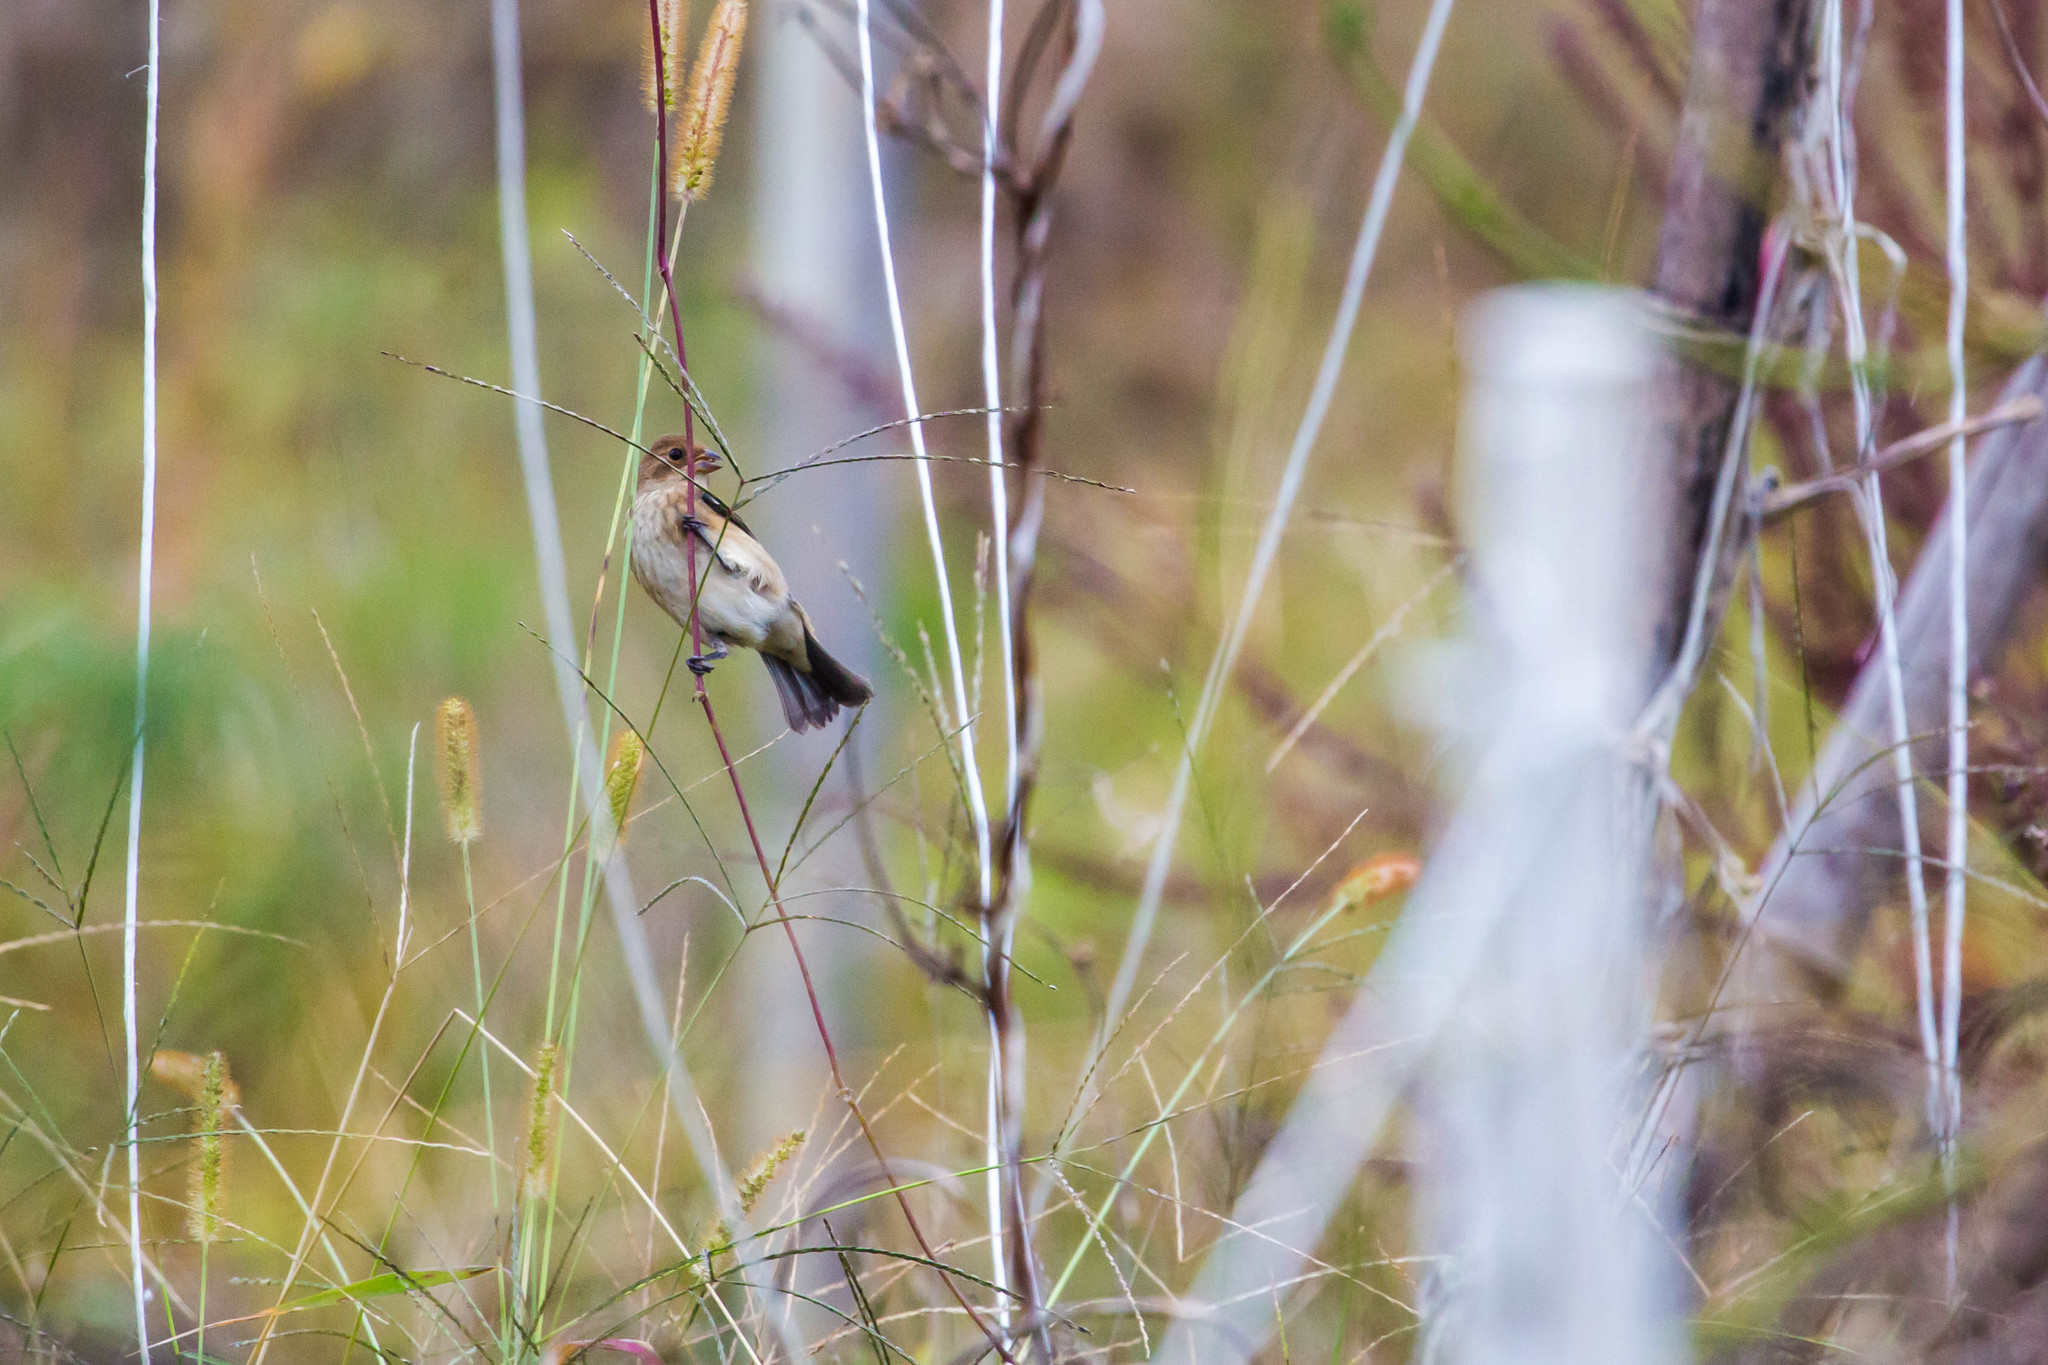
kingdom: Animalia
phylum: Chordata
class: Aves
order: Passeriformes
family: Cardinalidae
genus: Passerina
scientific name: Passerina cyanea
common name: Indigo bunting
